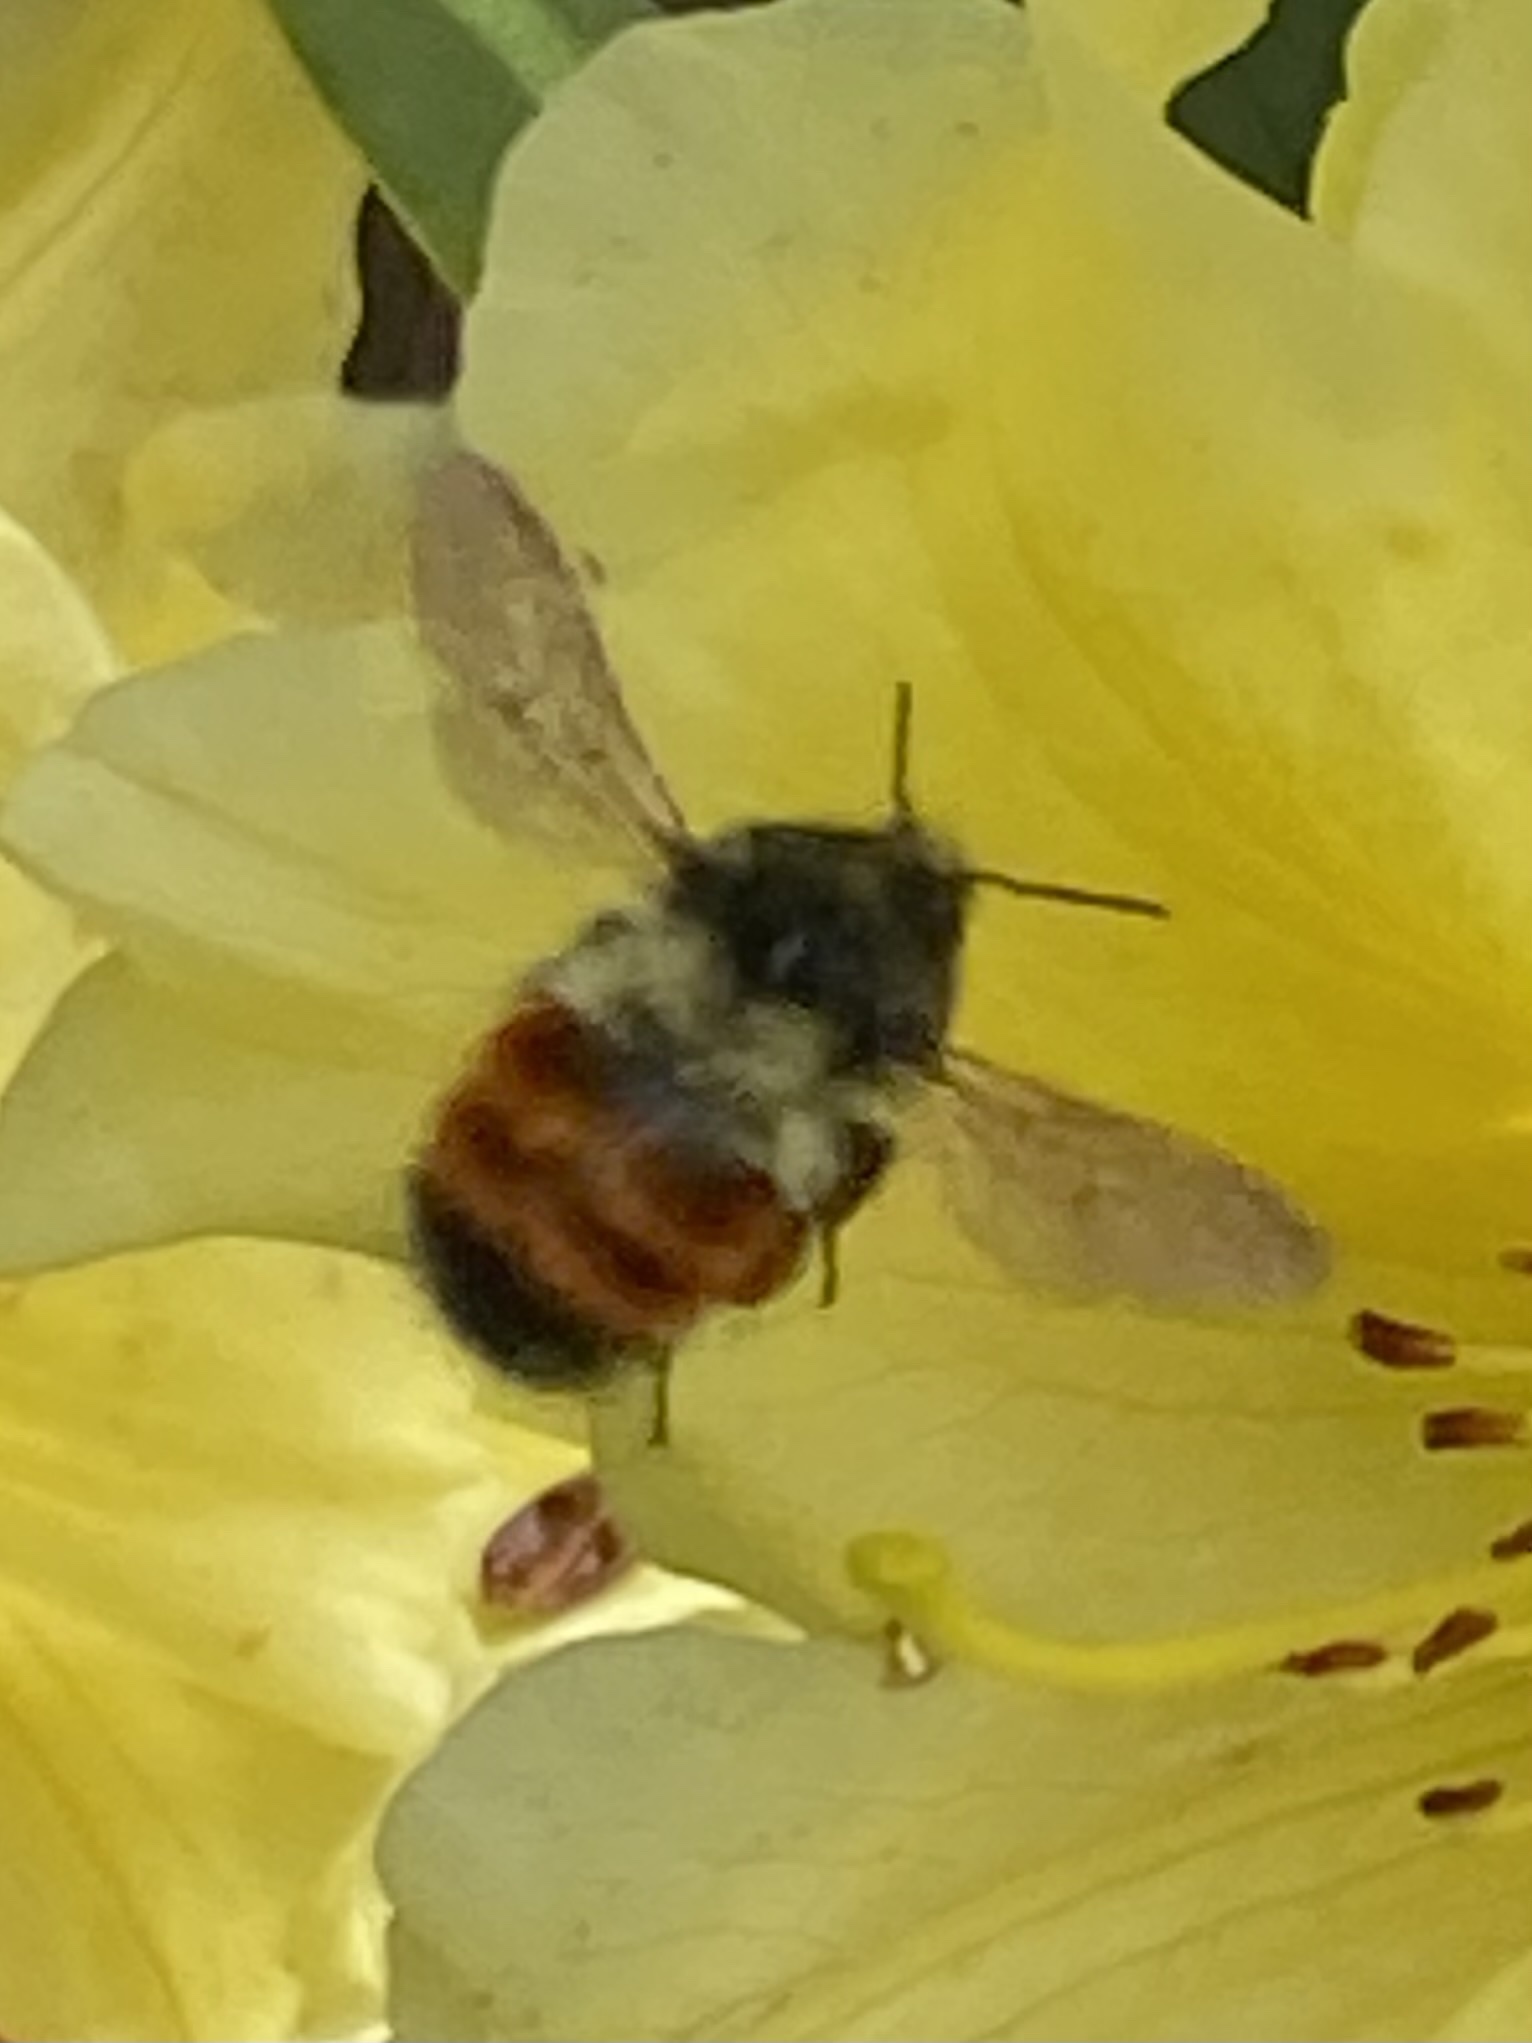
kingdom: Animalia
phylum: Arthropoda
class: Insecta
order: Hymenoptera
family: Apidae
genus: Bombus
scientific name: Bombus melanopygus
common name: Black tail bumble bee
